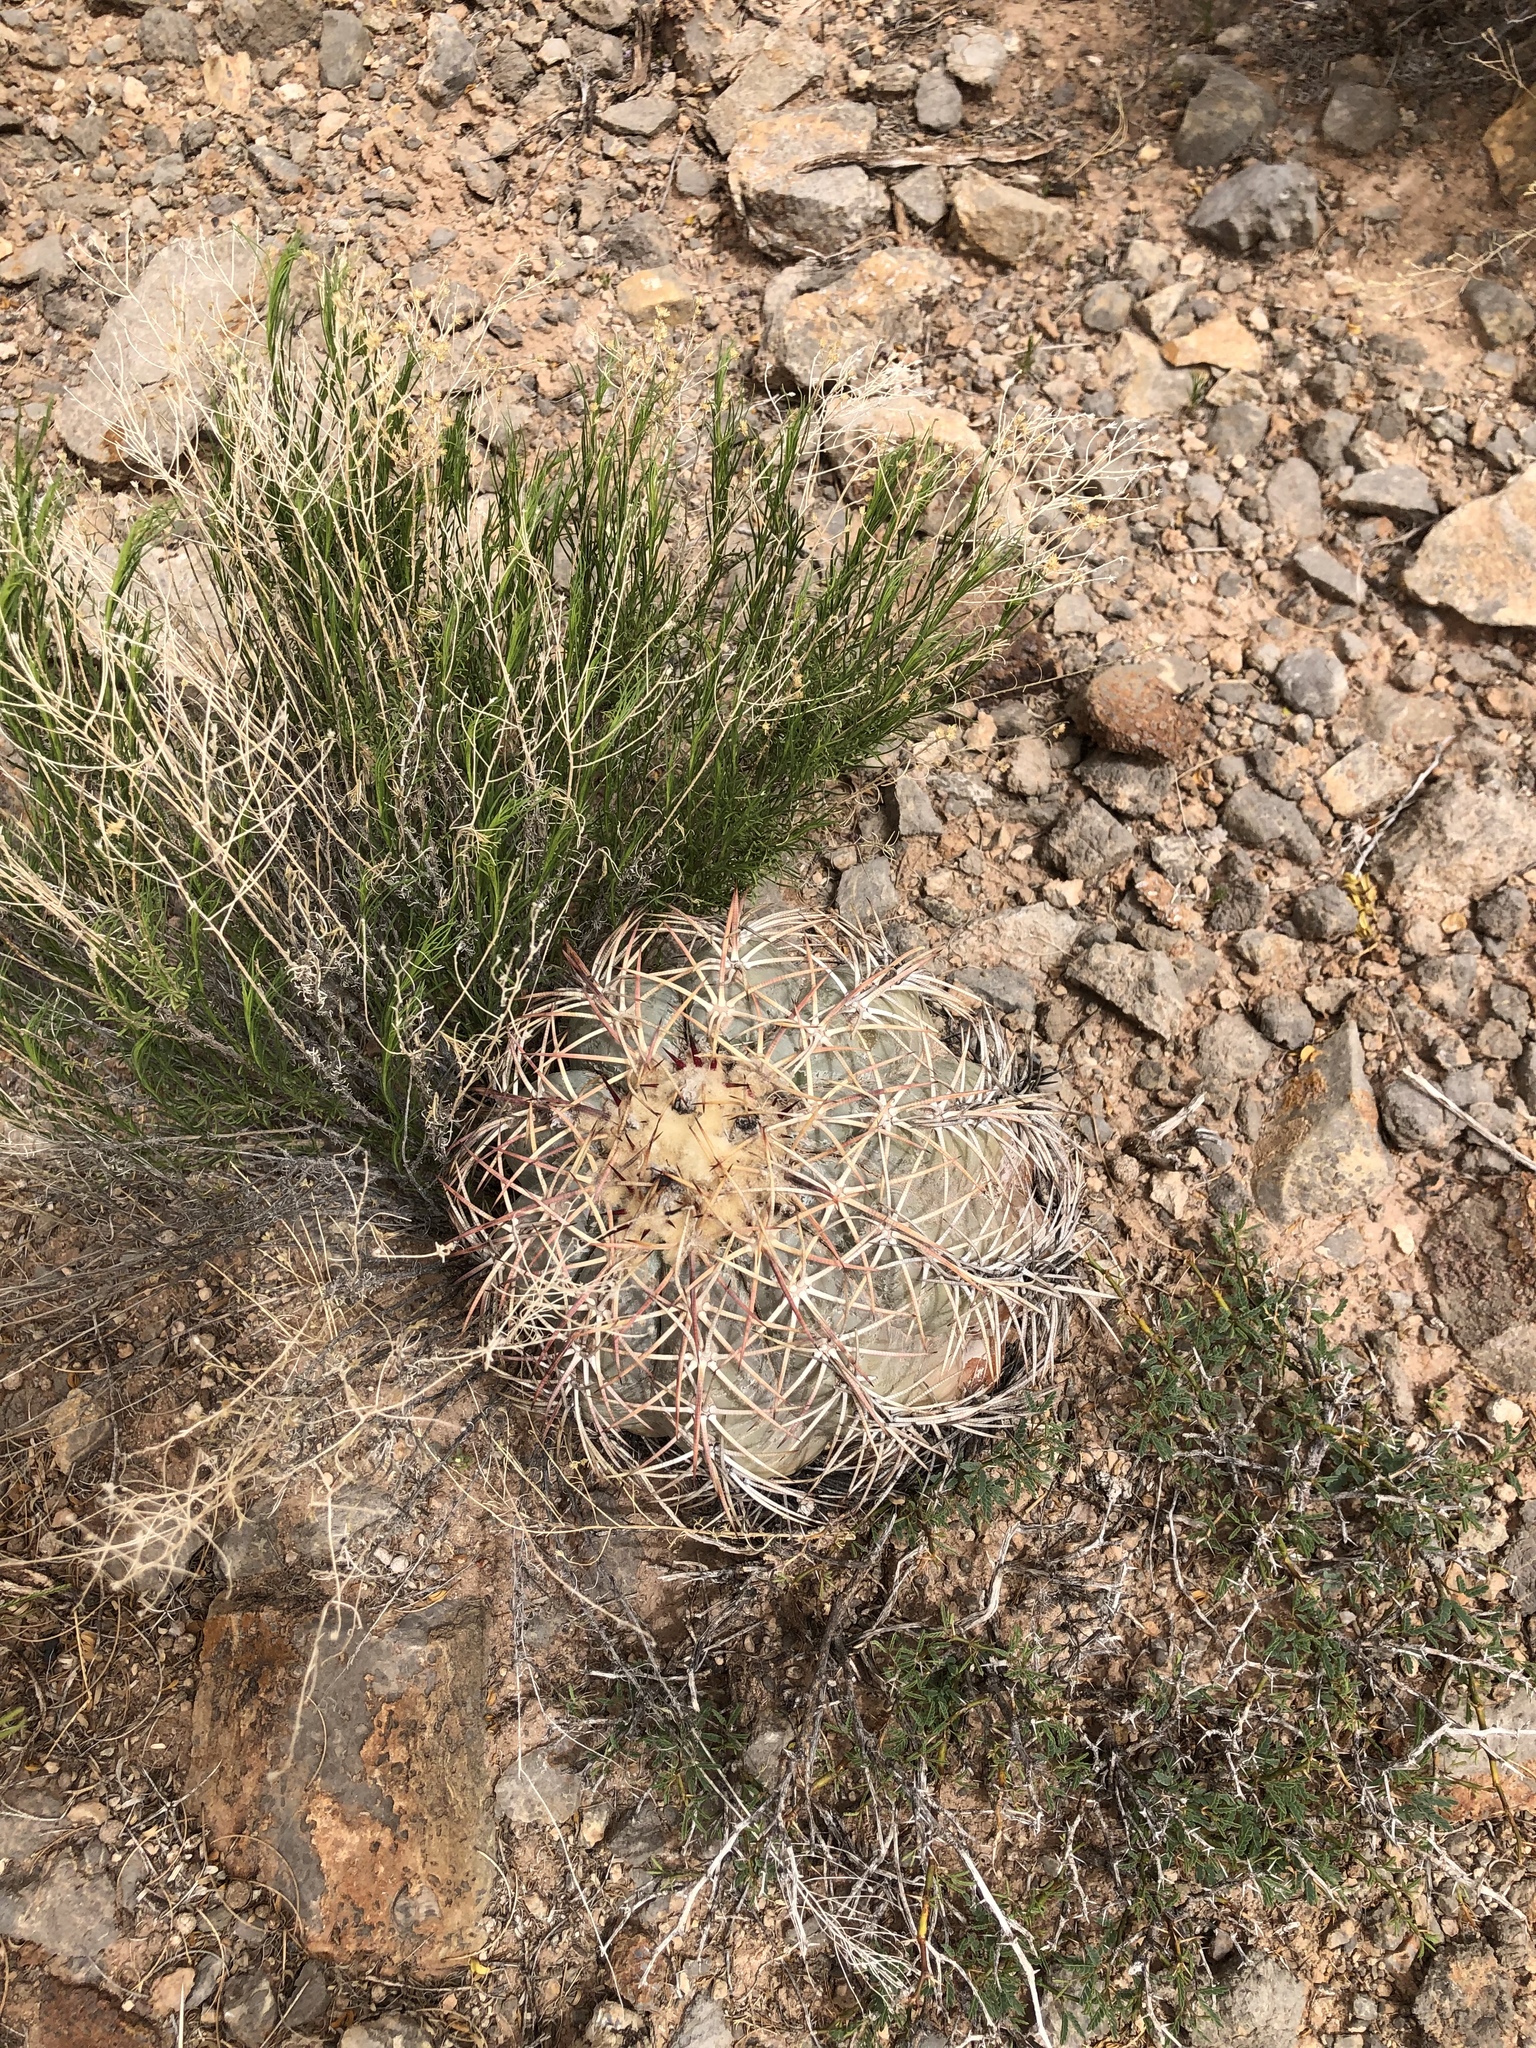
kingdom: Plantae
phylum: Tracheophyta
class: Magnoliopsida
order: Caryophyllales
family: Cactaceae
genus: Echinocactus
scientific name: Echinocactus horizonthalonius
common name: Devilshead
